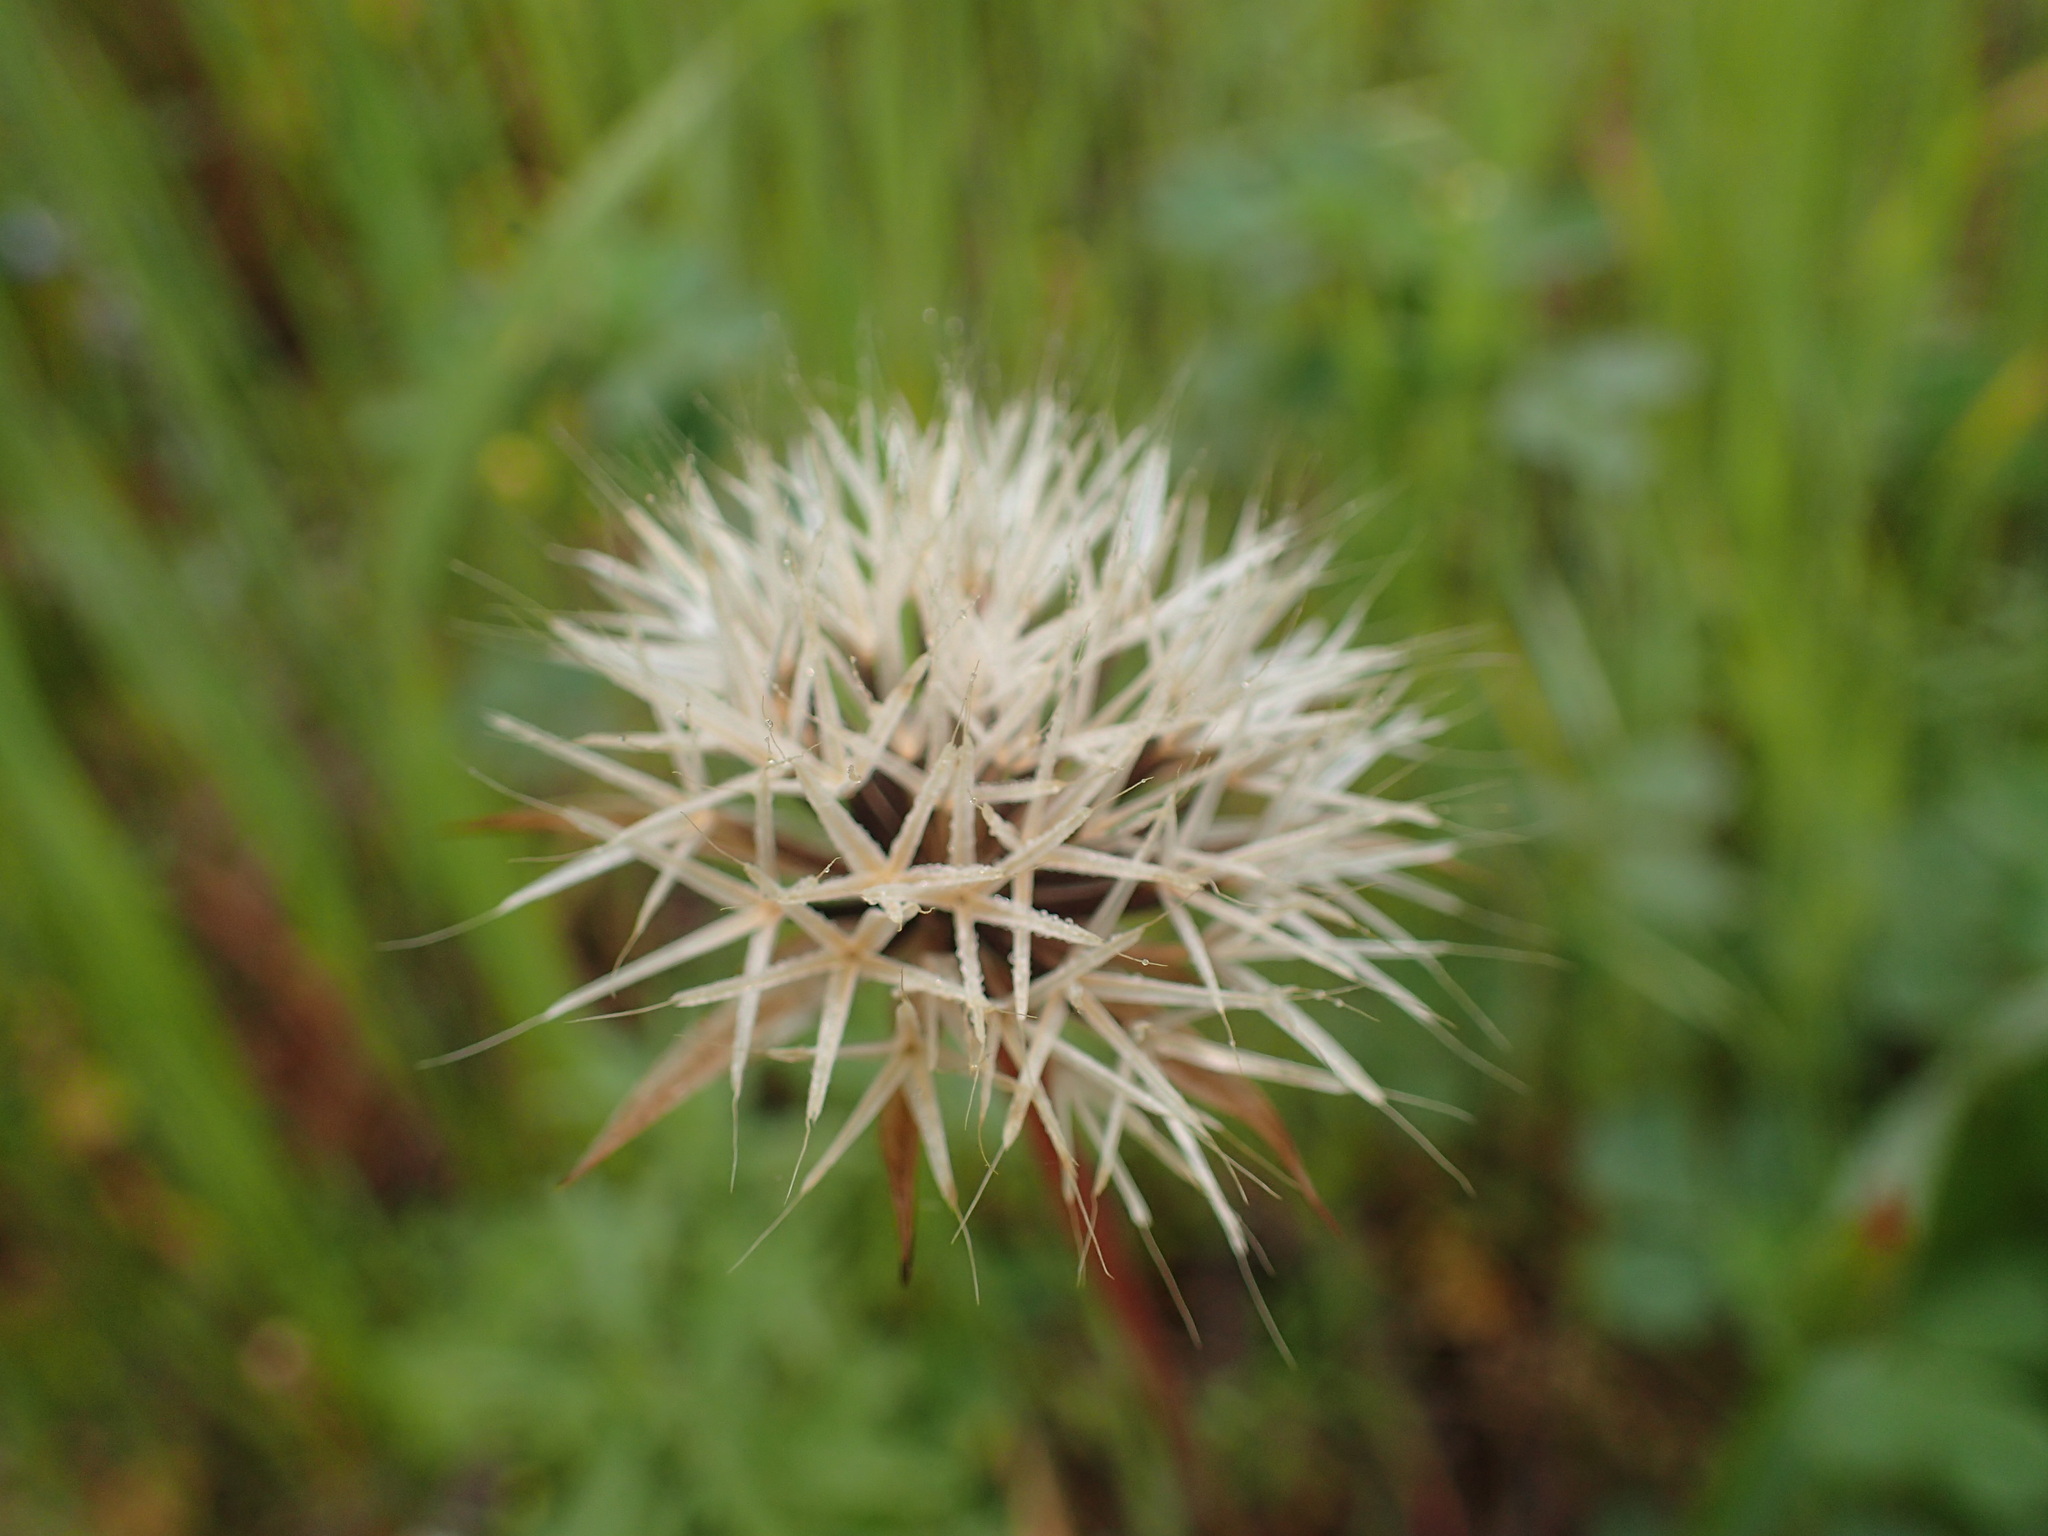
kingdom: Plantae
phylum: Tracheophyta
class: Magnoliopsida
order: Asterales
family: Asteraceae
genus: Microseris
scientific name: Microseris lindleyi
